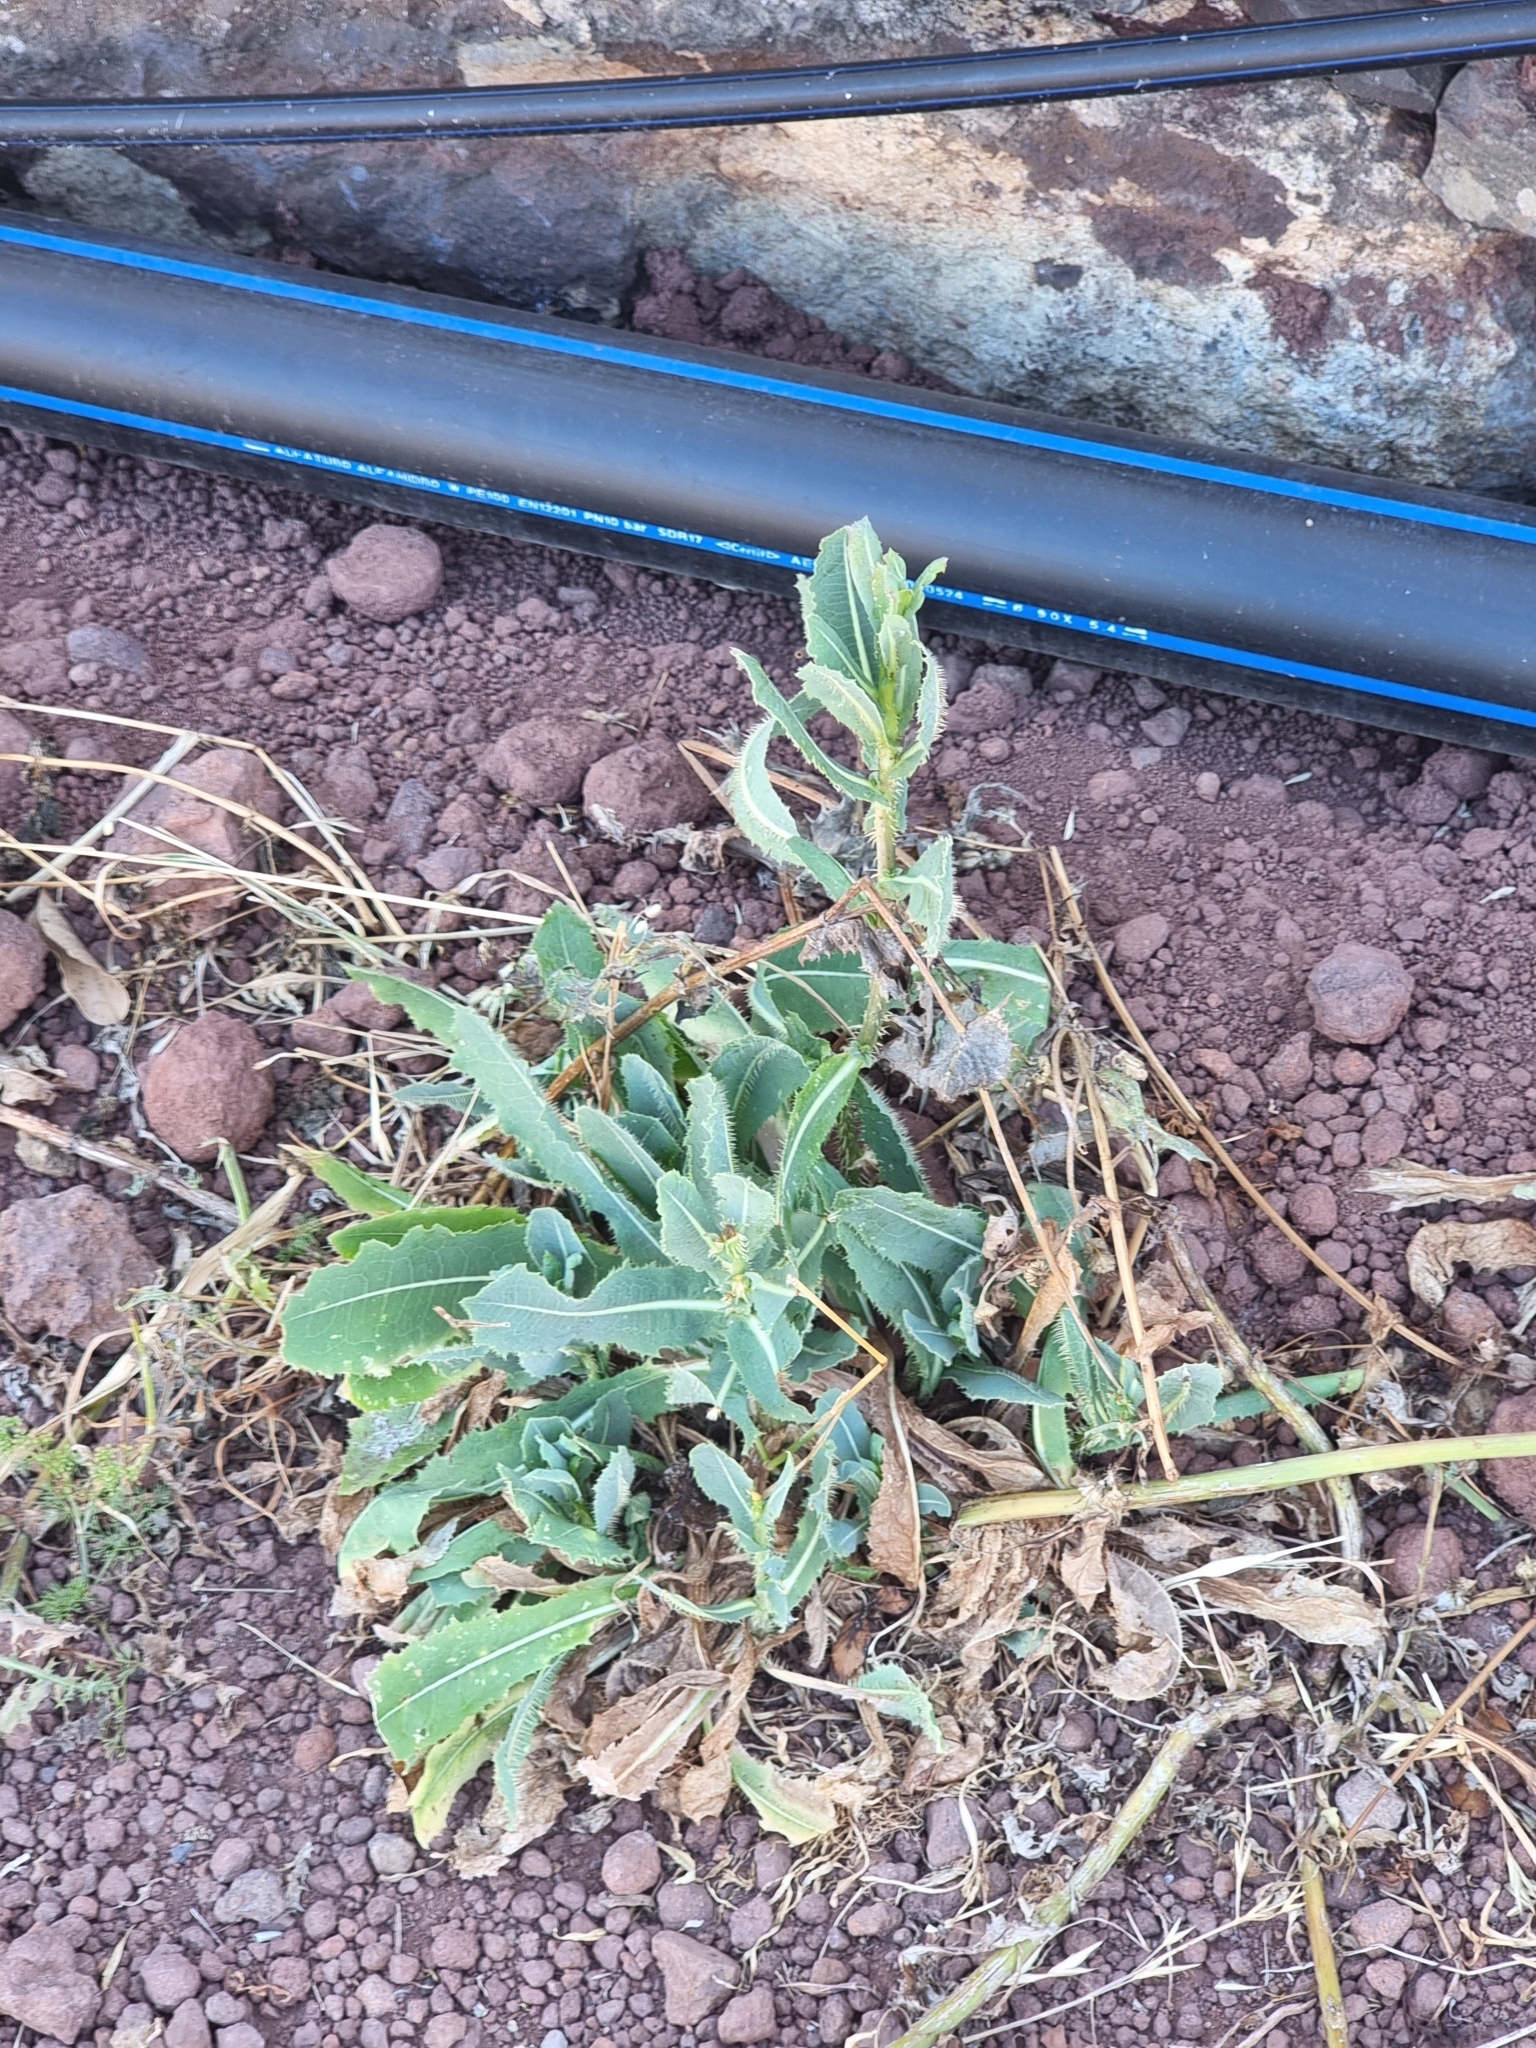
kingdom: Plantae
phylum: Tracheophyta
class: Magnoliopsida
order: Asterales
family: Asteraceae
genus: Lactuca
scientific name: Lactuca serriola
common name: Prickly lettuce
